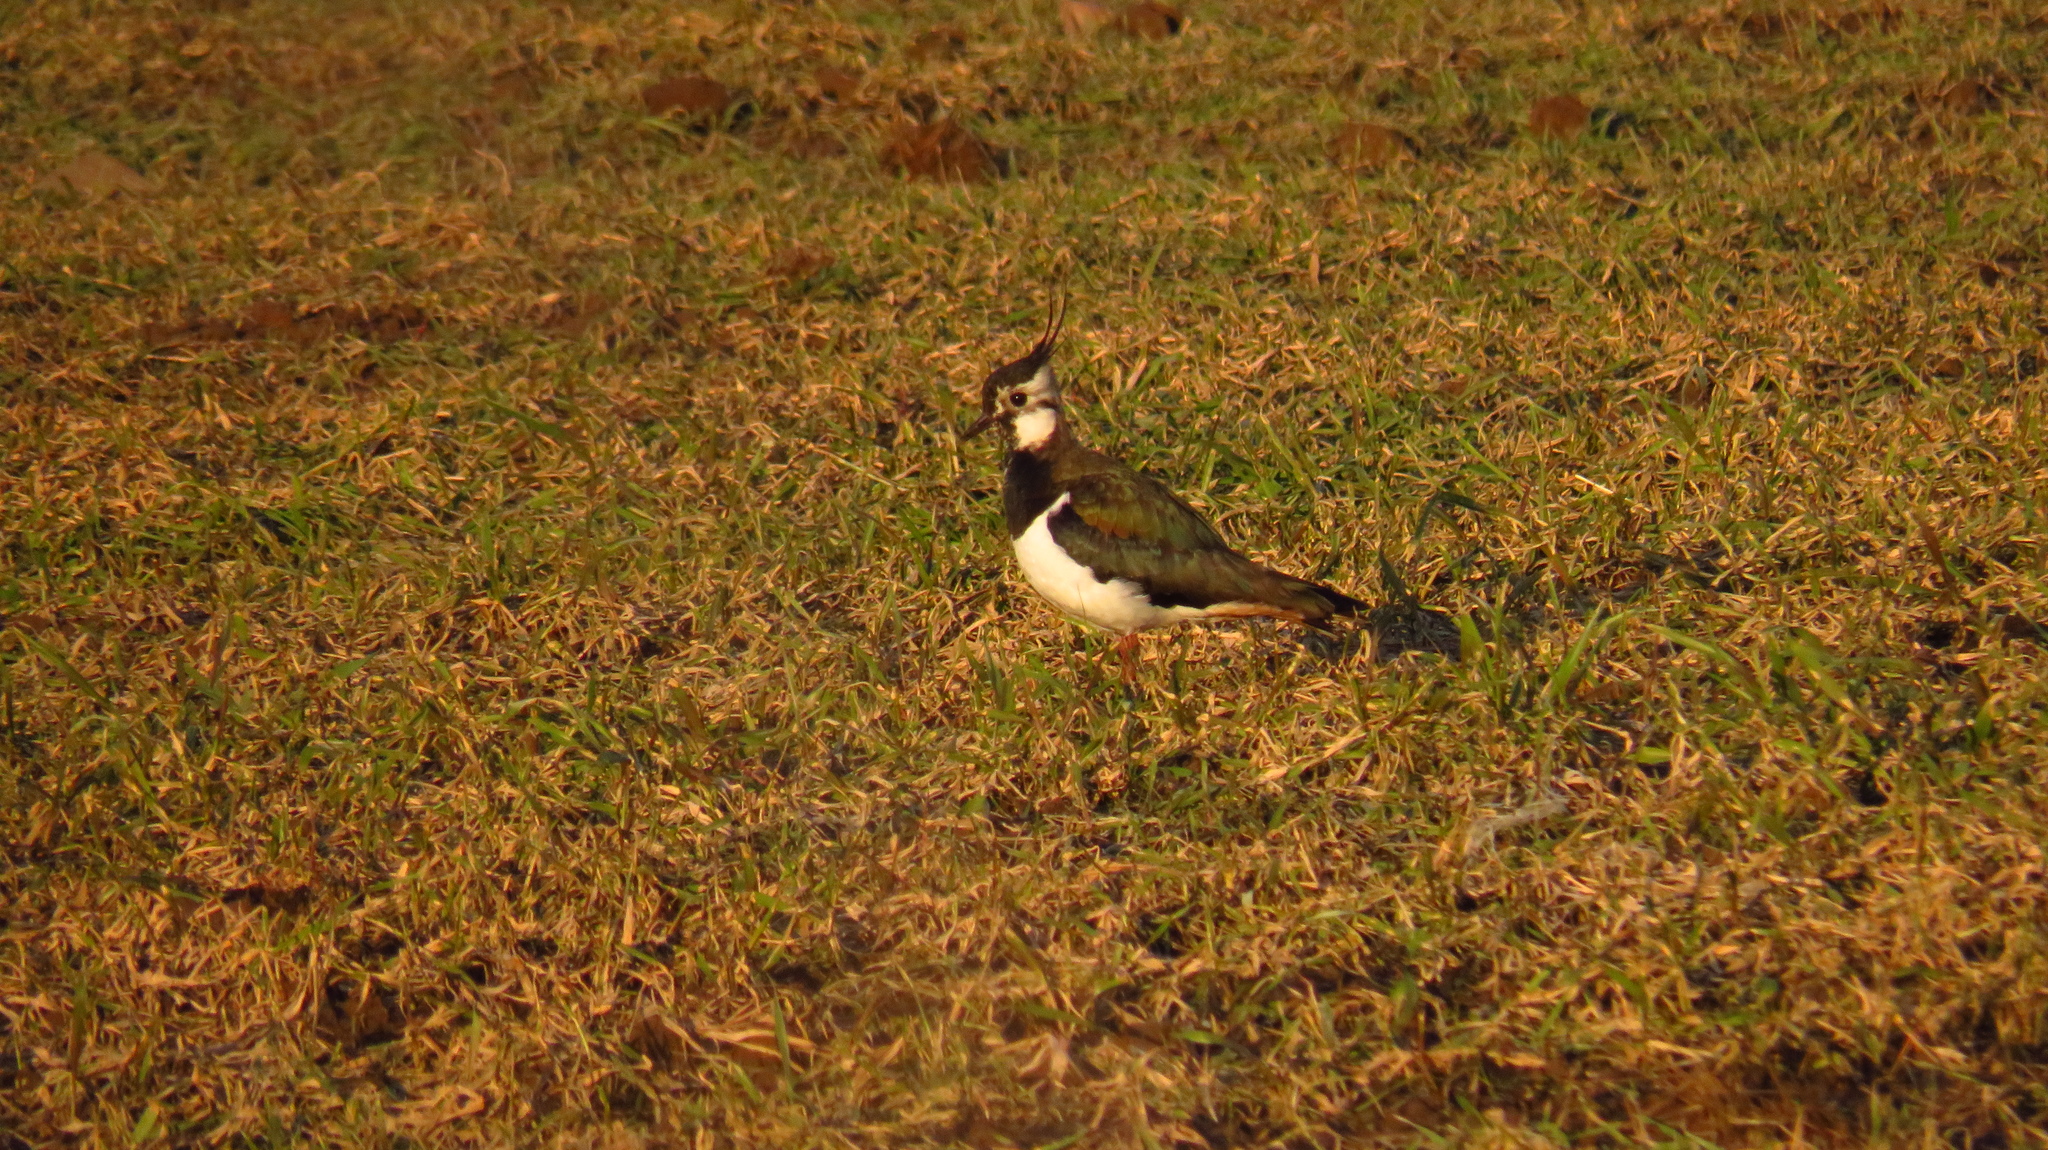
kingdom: Animalia
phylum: Chordata
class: Aves
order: Charadriiformes
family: Charadriidae
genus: Vanellus
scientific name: Vanellus vanellus
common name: Northern lapwing
